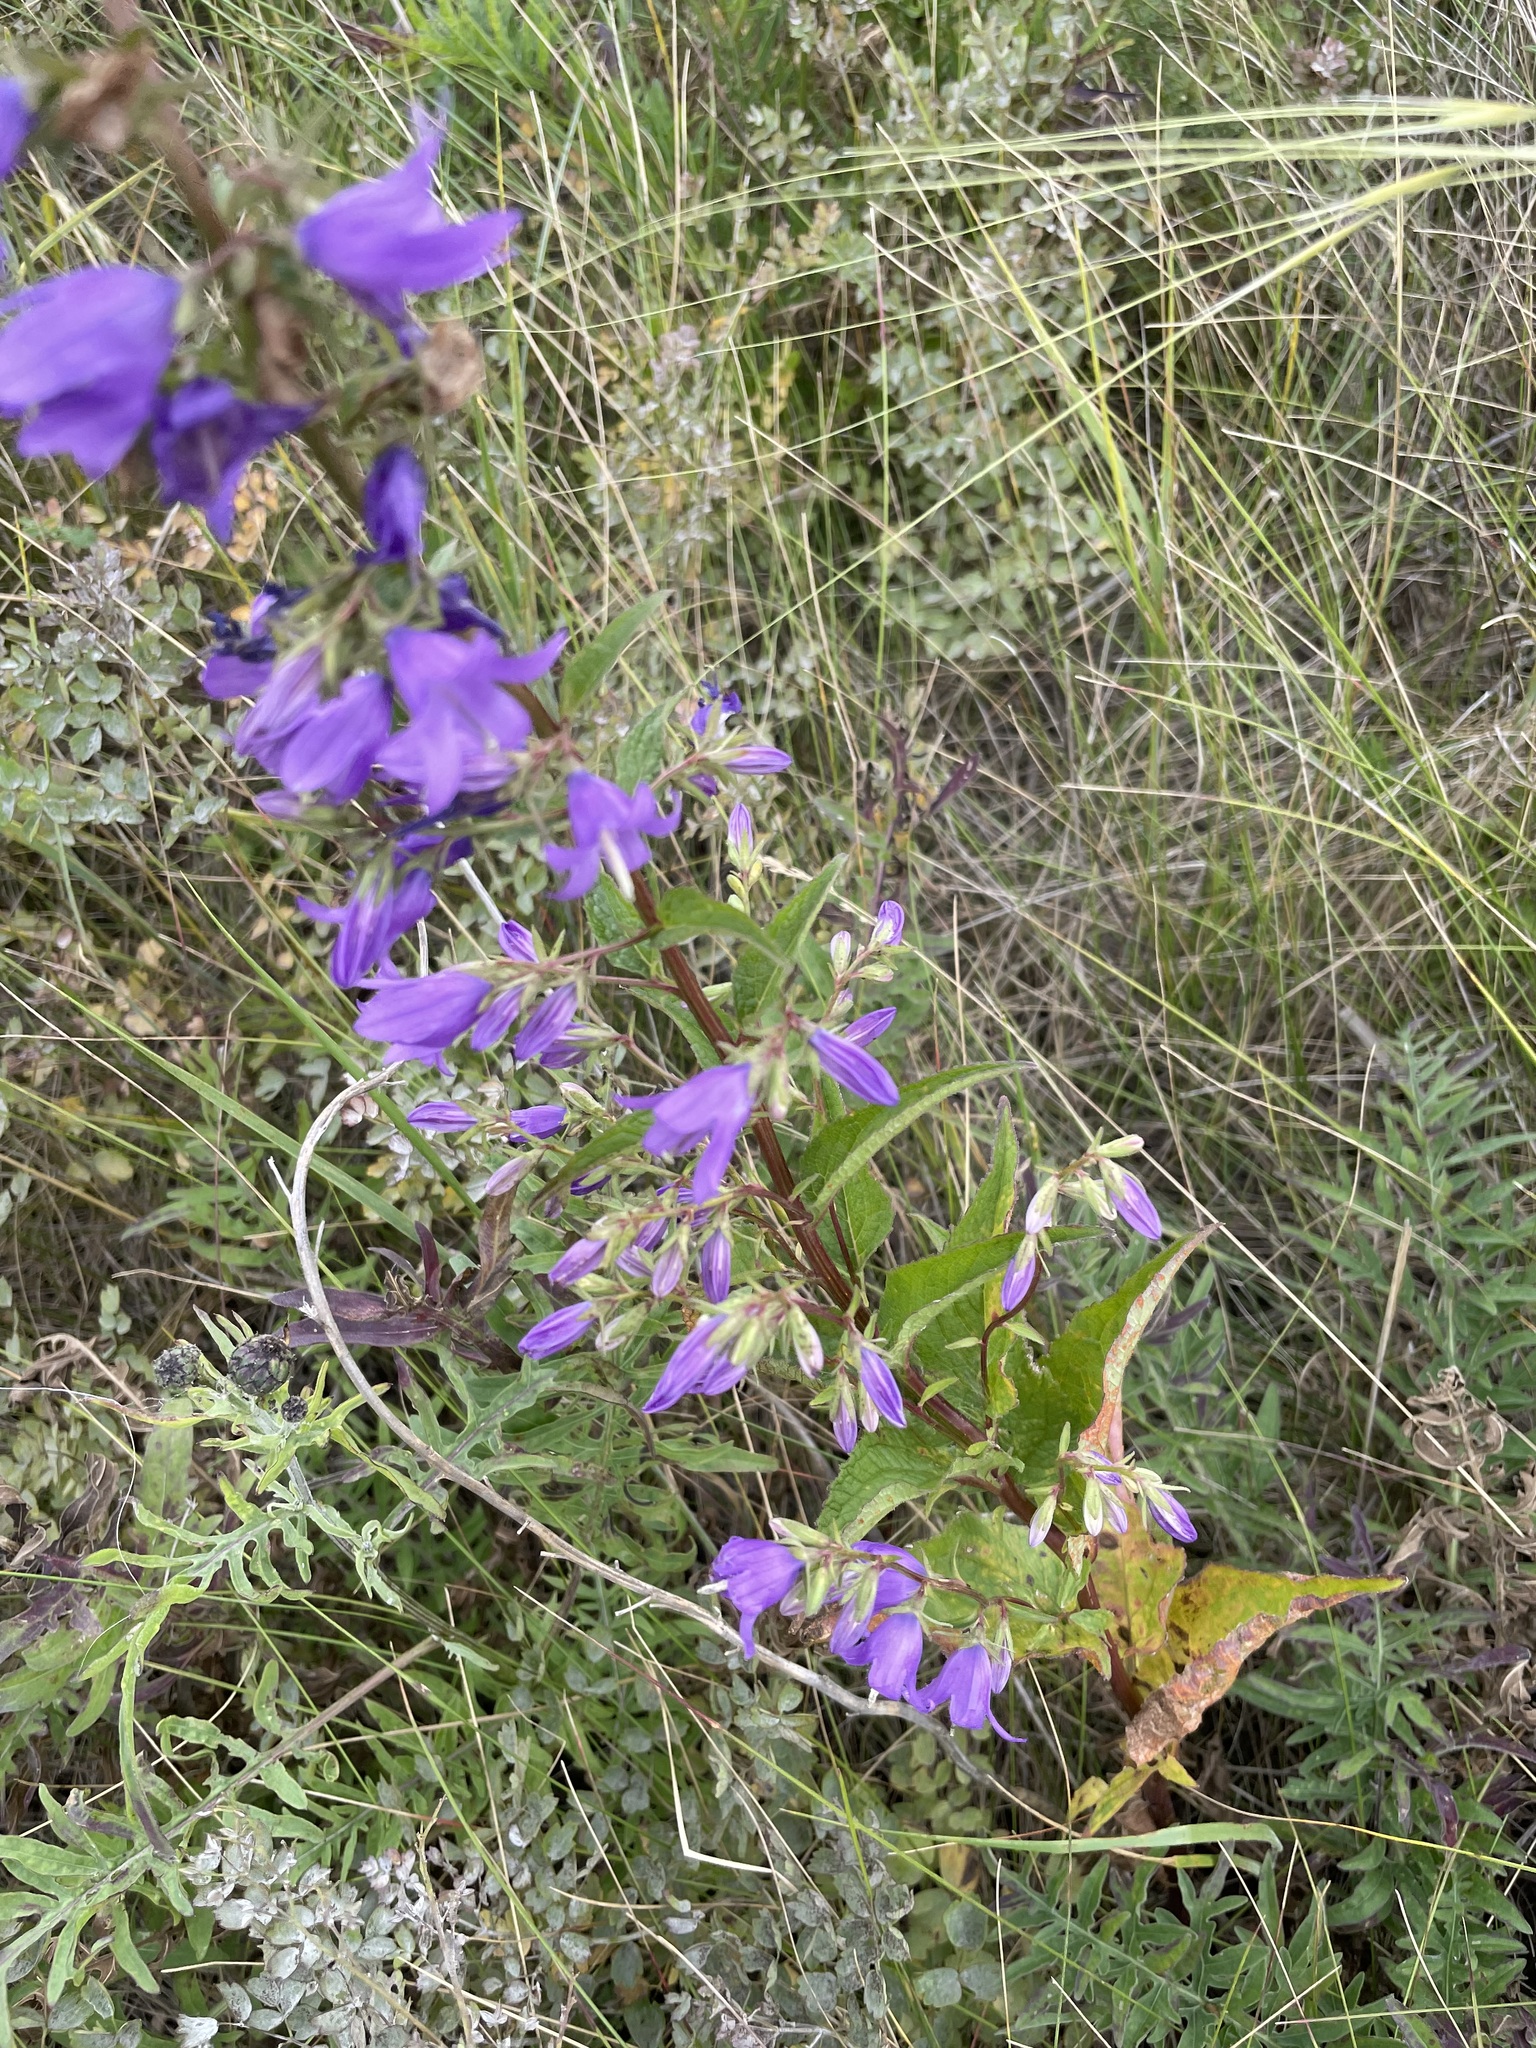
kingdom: Plantae
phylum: Tracheophyta
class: Magnoliopsida
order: Asterales
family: Campanulaceae
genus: Campanula
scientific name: Campanula rapunculoides
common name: Creeping bellflower
